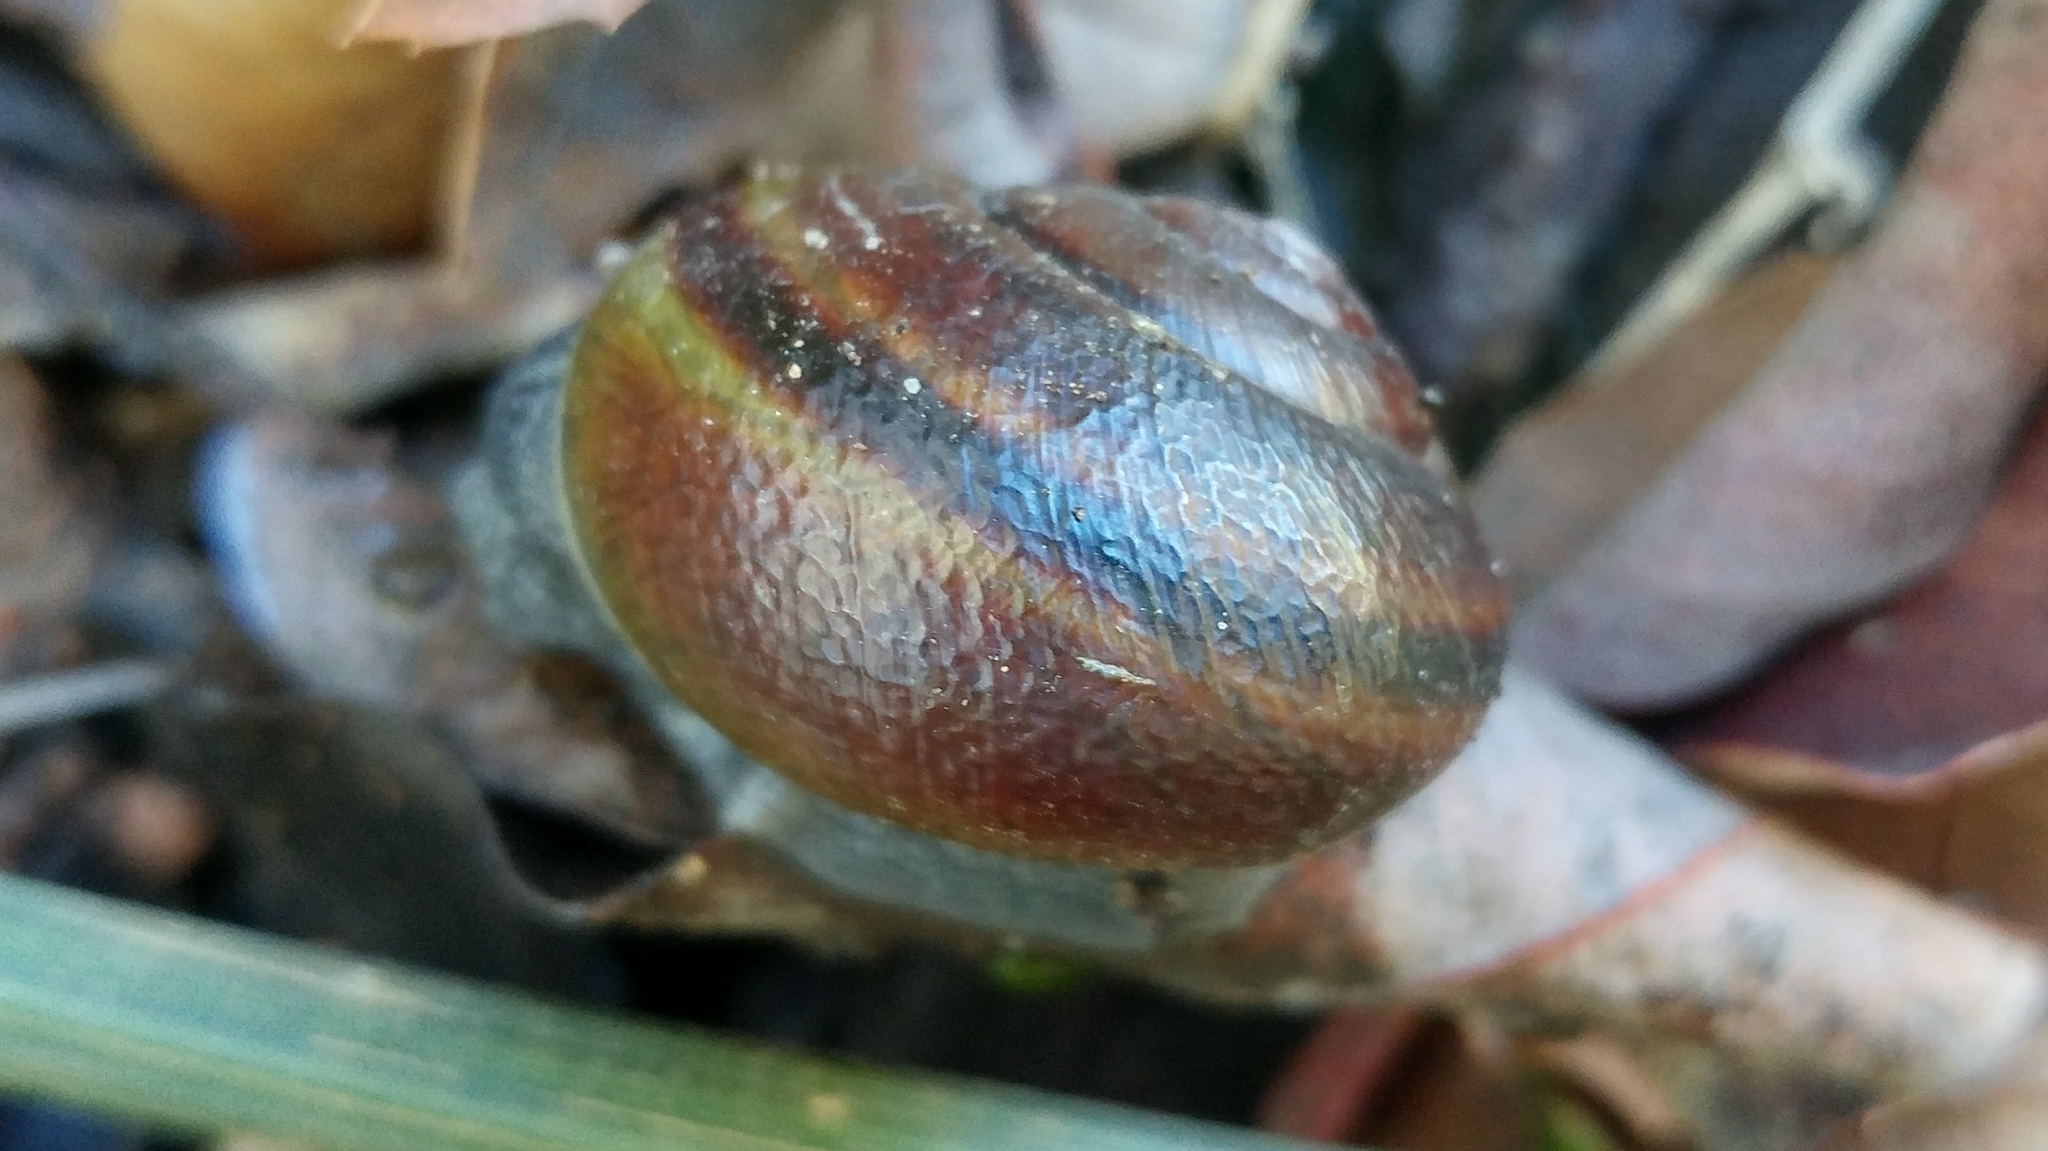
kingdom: Animalia
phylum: Mollusca
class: Gastropoda
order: Stylommatophora
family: Xanthonychidae
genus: Helminthoglypta
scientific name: Helminthoglypta tudiculata
